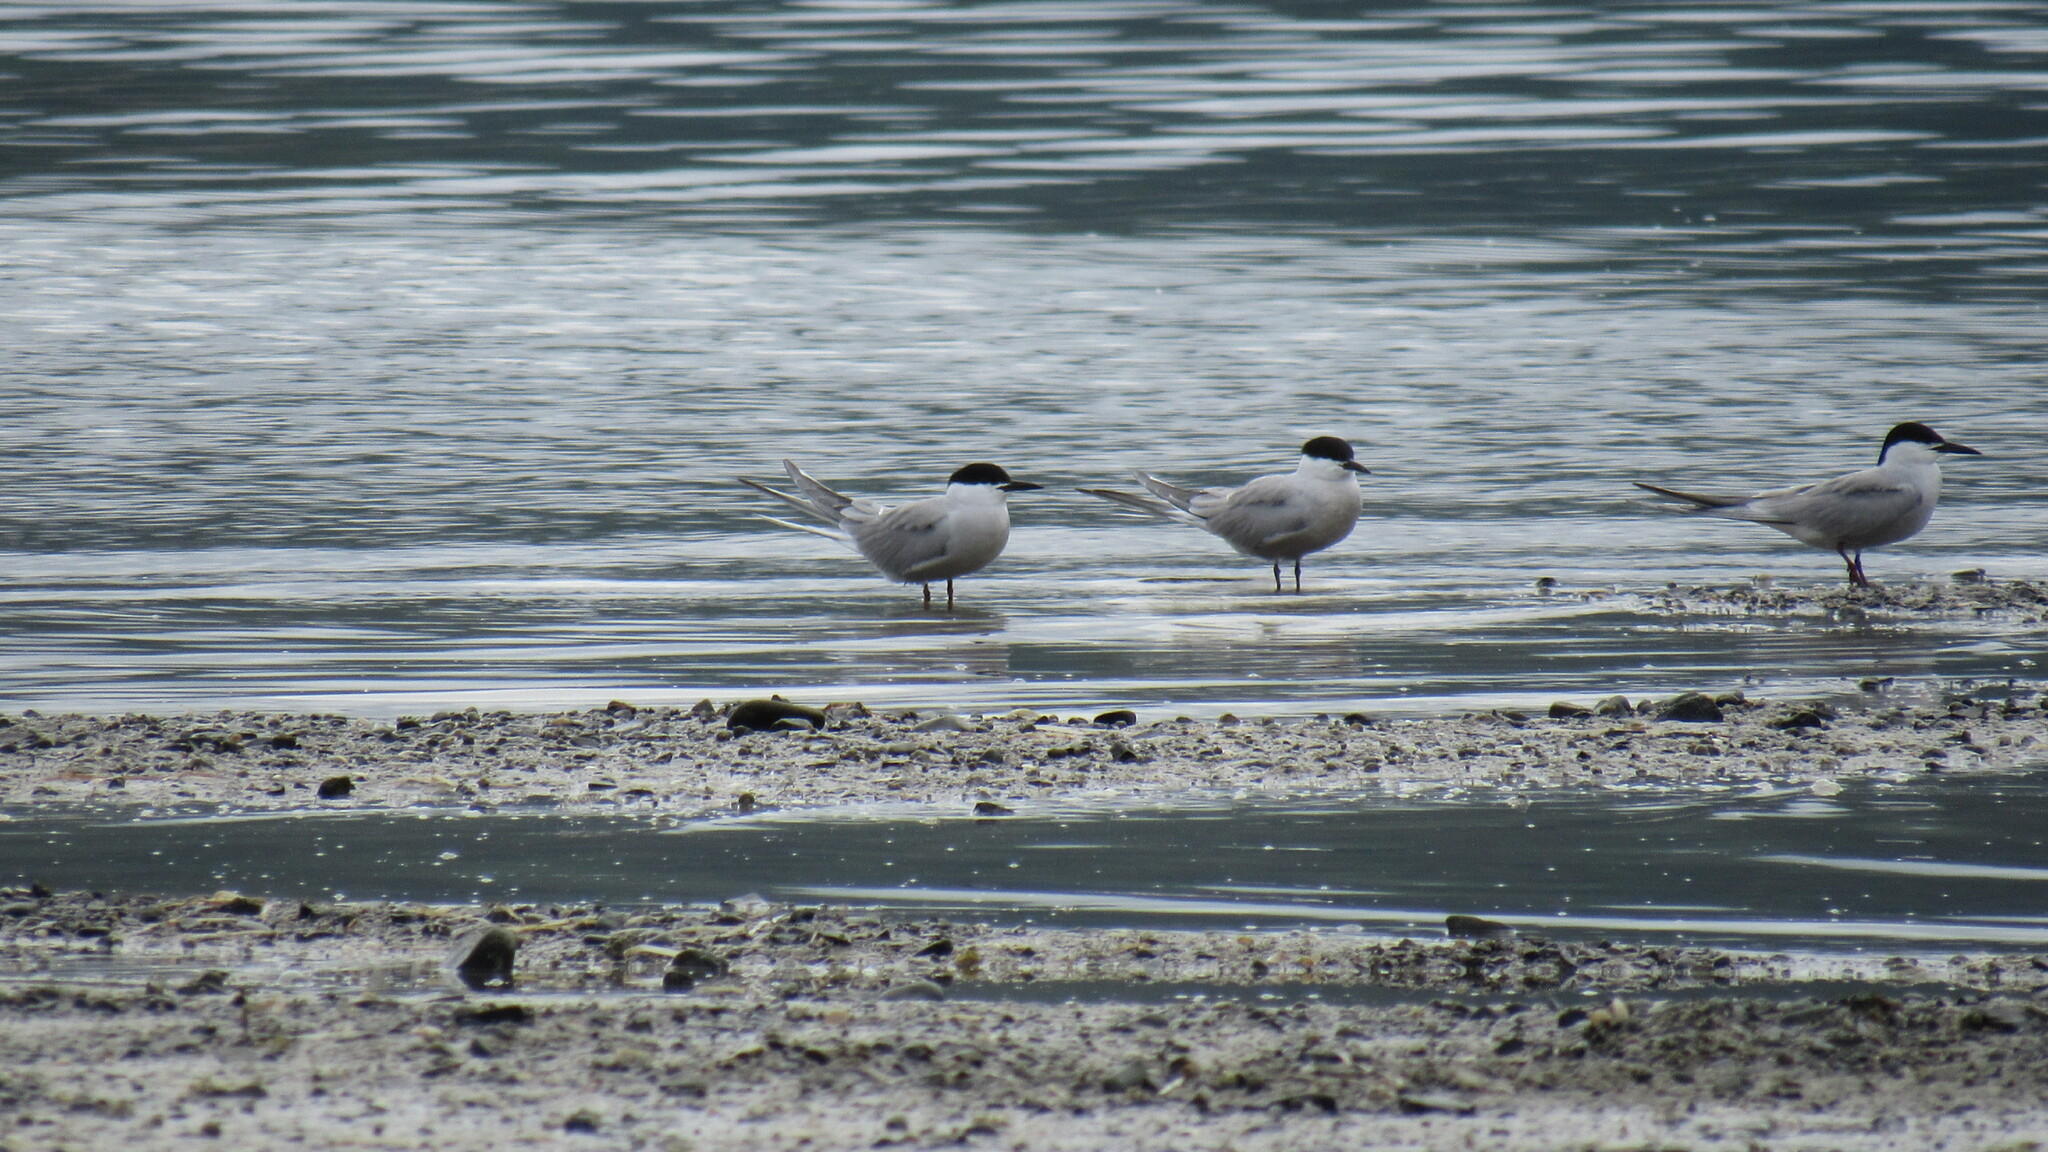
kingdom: Animalia
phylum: Chordata
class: Aves
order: Charadriiformes
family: Laridae
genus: Sterna
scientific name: Sterna hirundo
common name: Common tern
